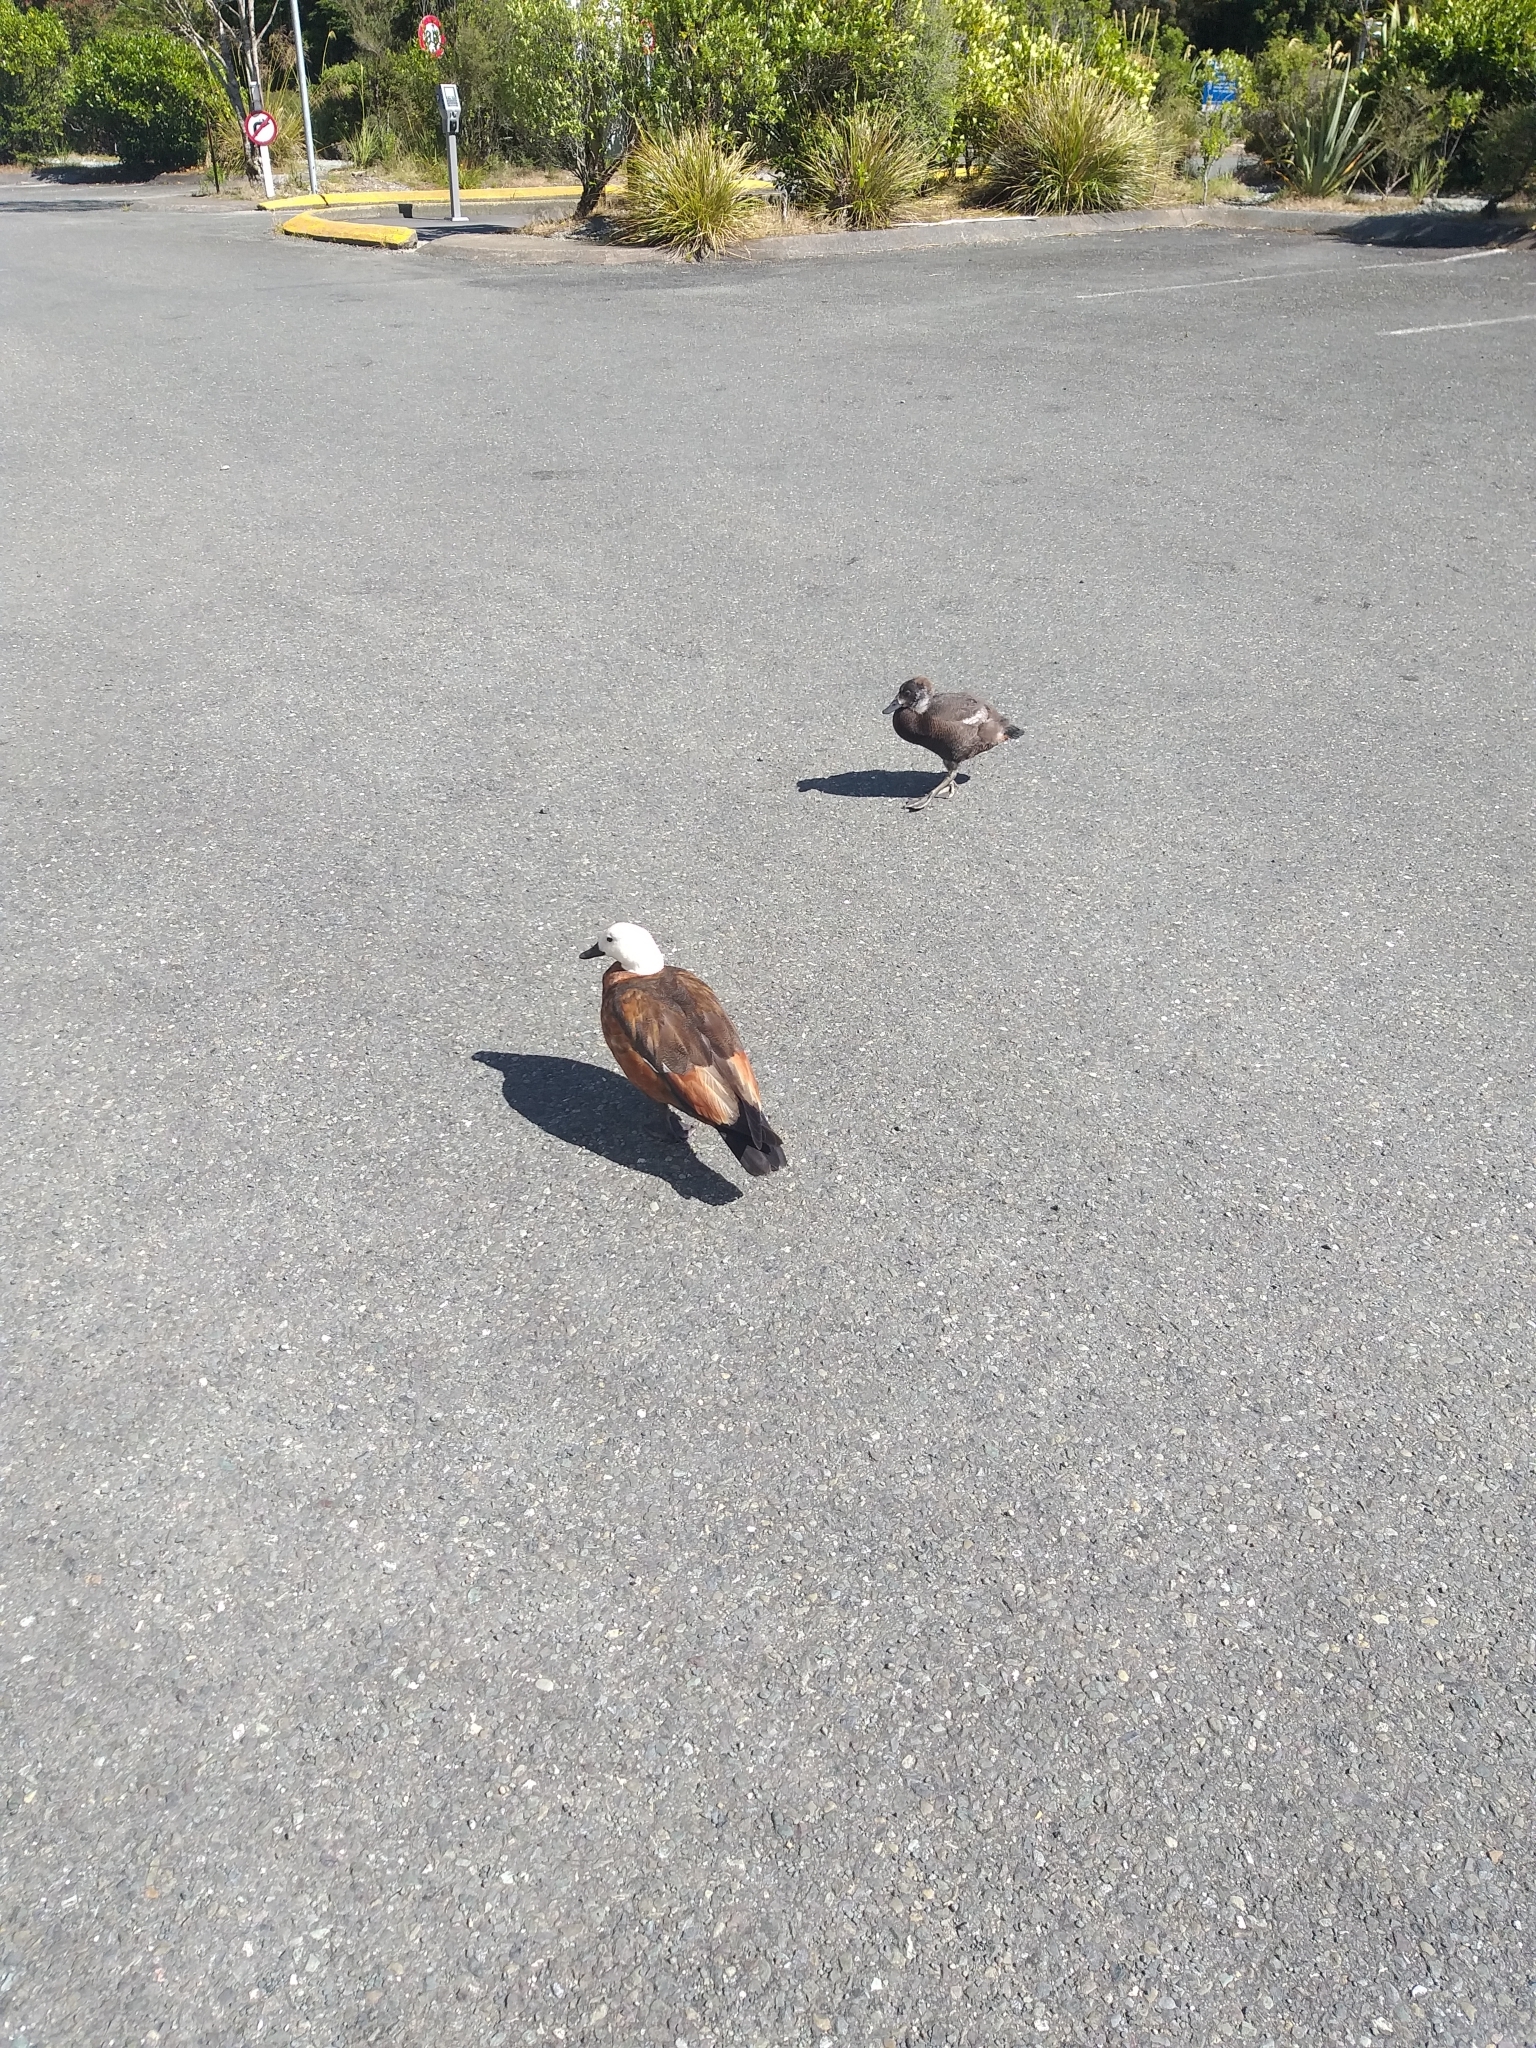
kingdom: Animalia
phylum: Chordata
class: Aves
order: Anseriformes
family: Anatidae
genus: Tadorna
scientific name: Tadorna variegata
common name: Paradise shelduck
